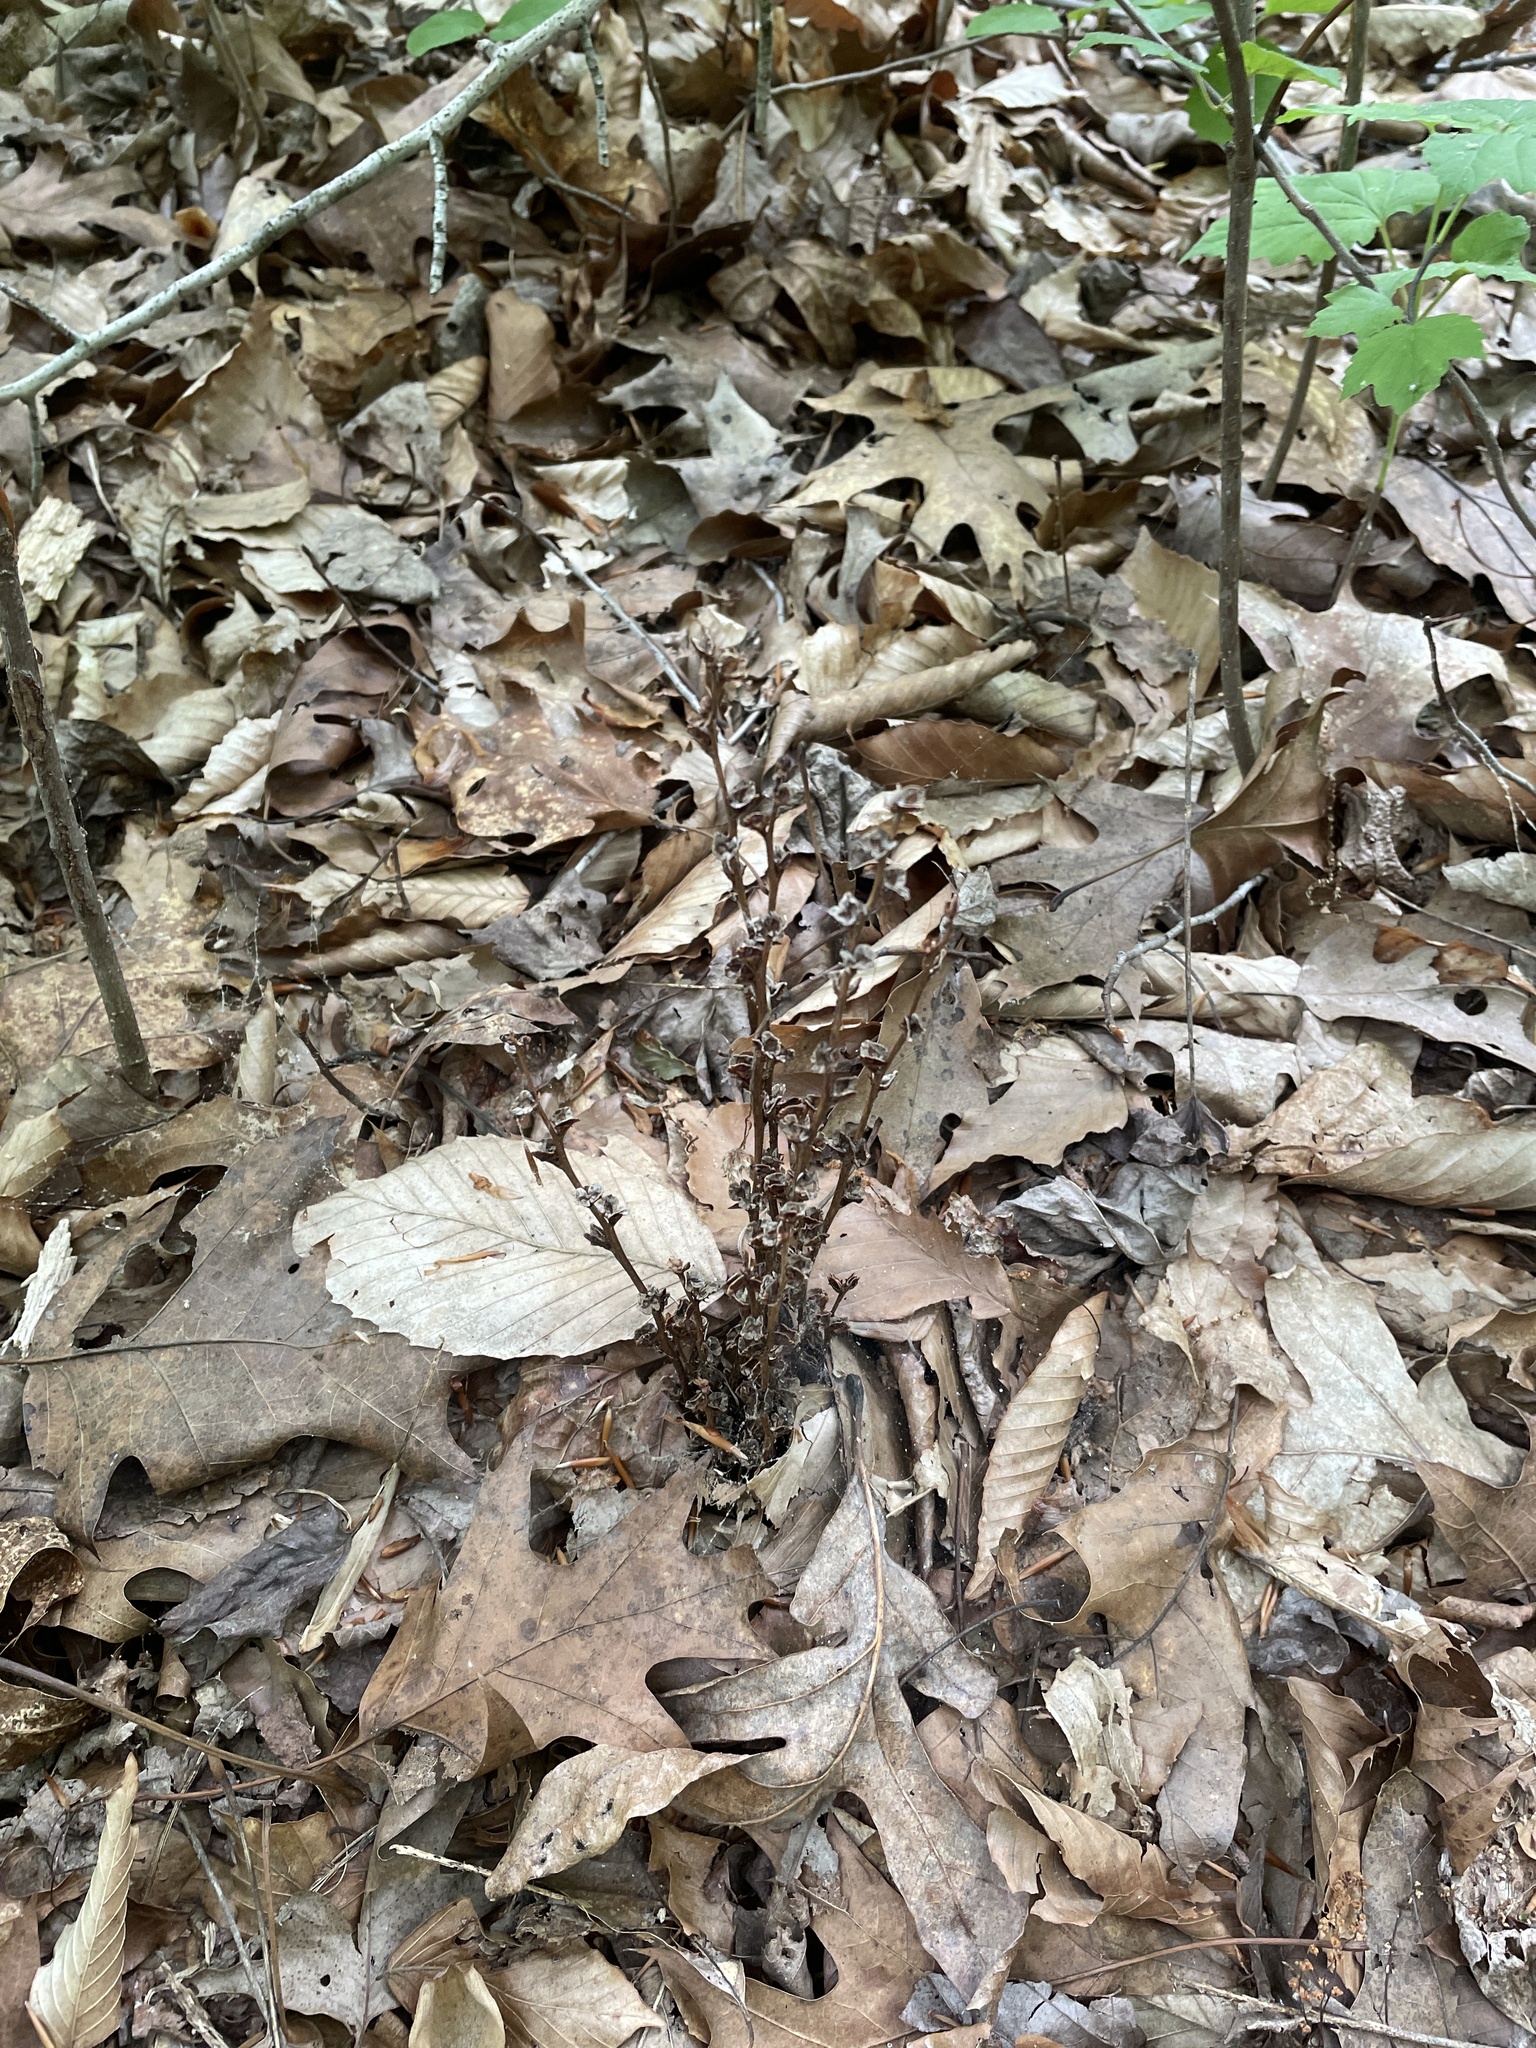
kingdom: Plantae
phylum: Tracheophyta
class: Magnoliopsida
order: Lamiales
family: Orobanchaceae
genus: Epifagus
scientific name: Epifagus virginiana
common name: Beechdrops
